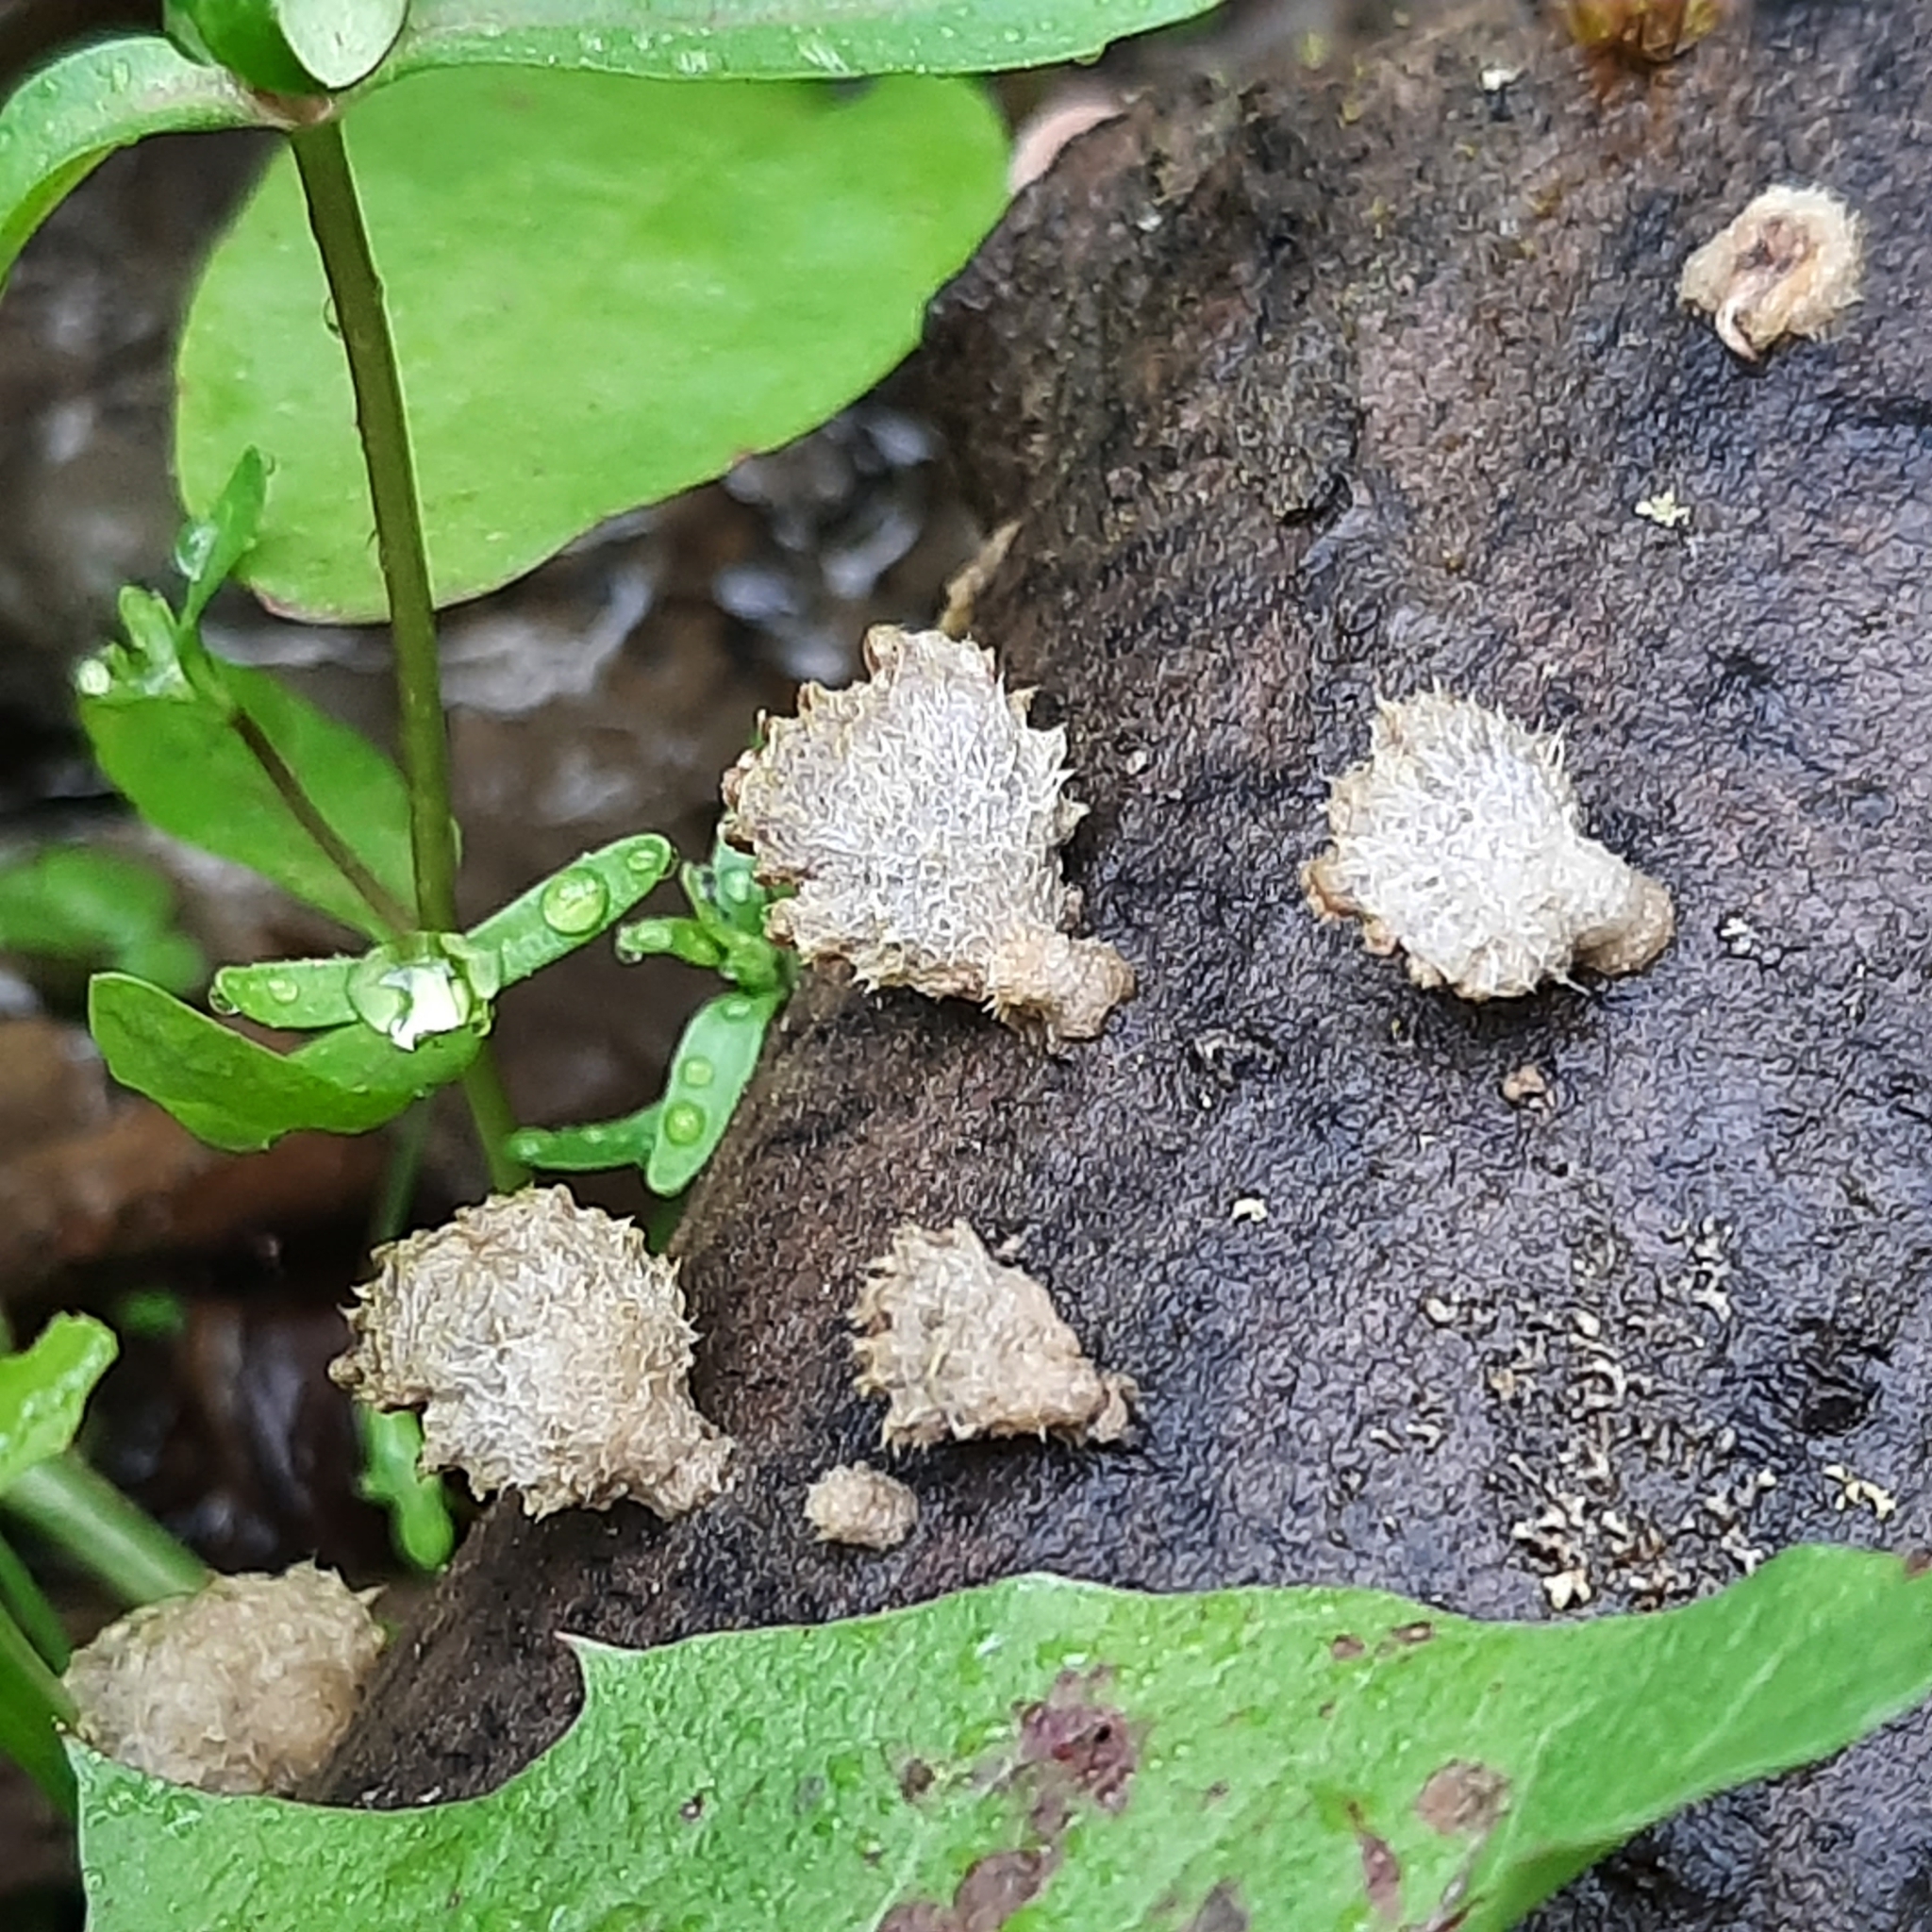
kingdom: Fungi
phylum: Basidiomycota
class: Agaricomycetes
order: Agaricales
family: Schizophyllaceae
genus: Schizophyllum
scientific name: Schizophyllum commune
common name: Common porecrust
